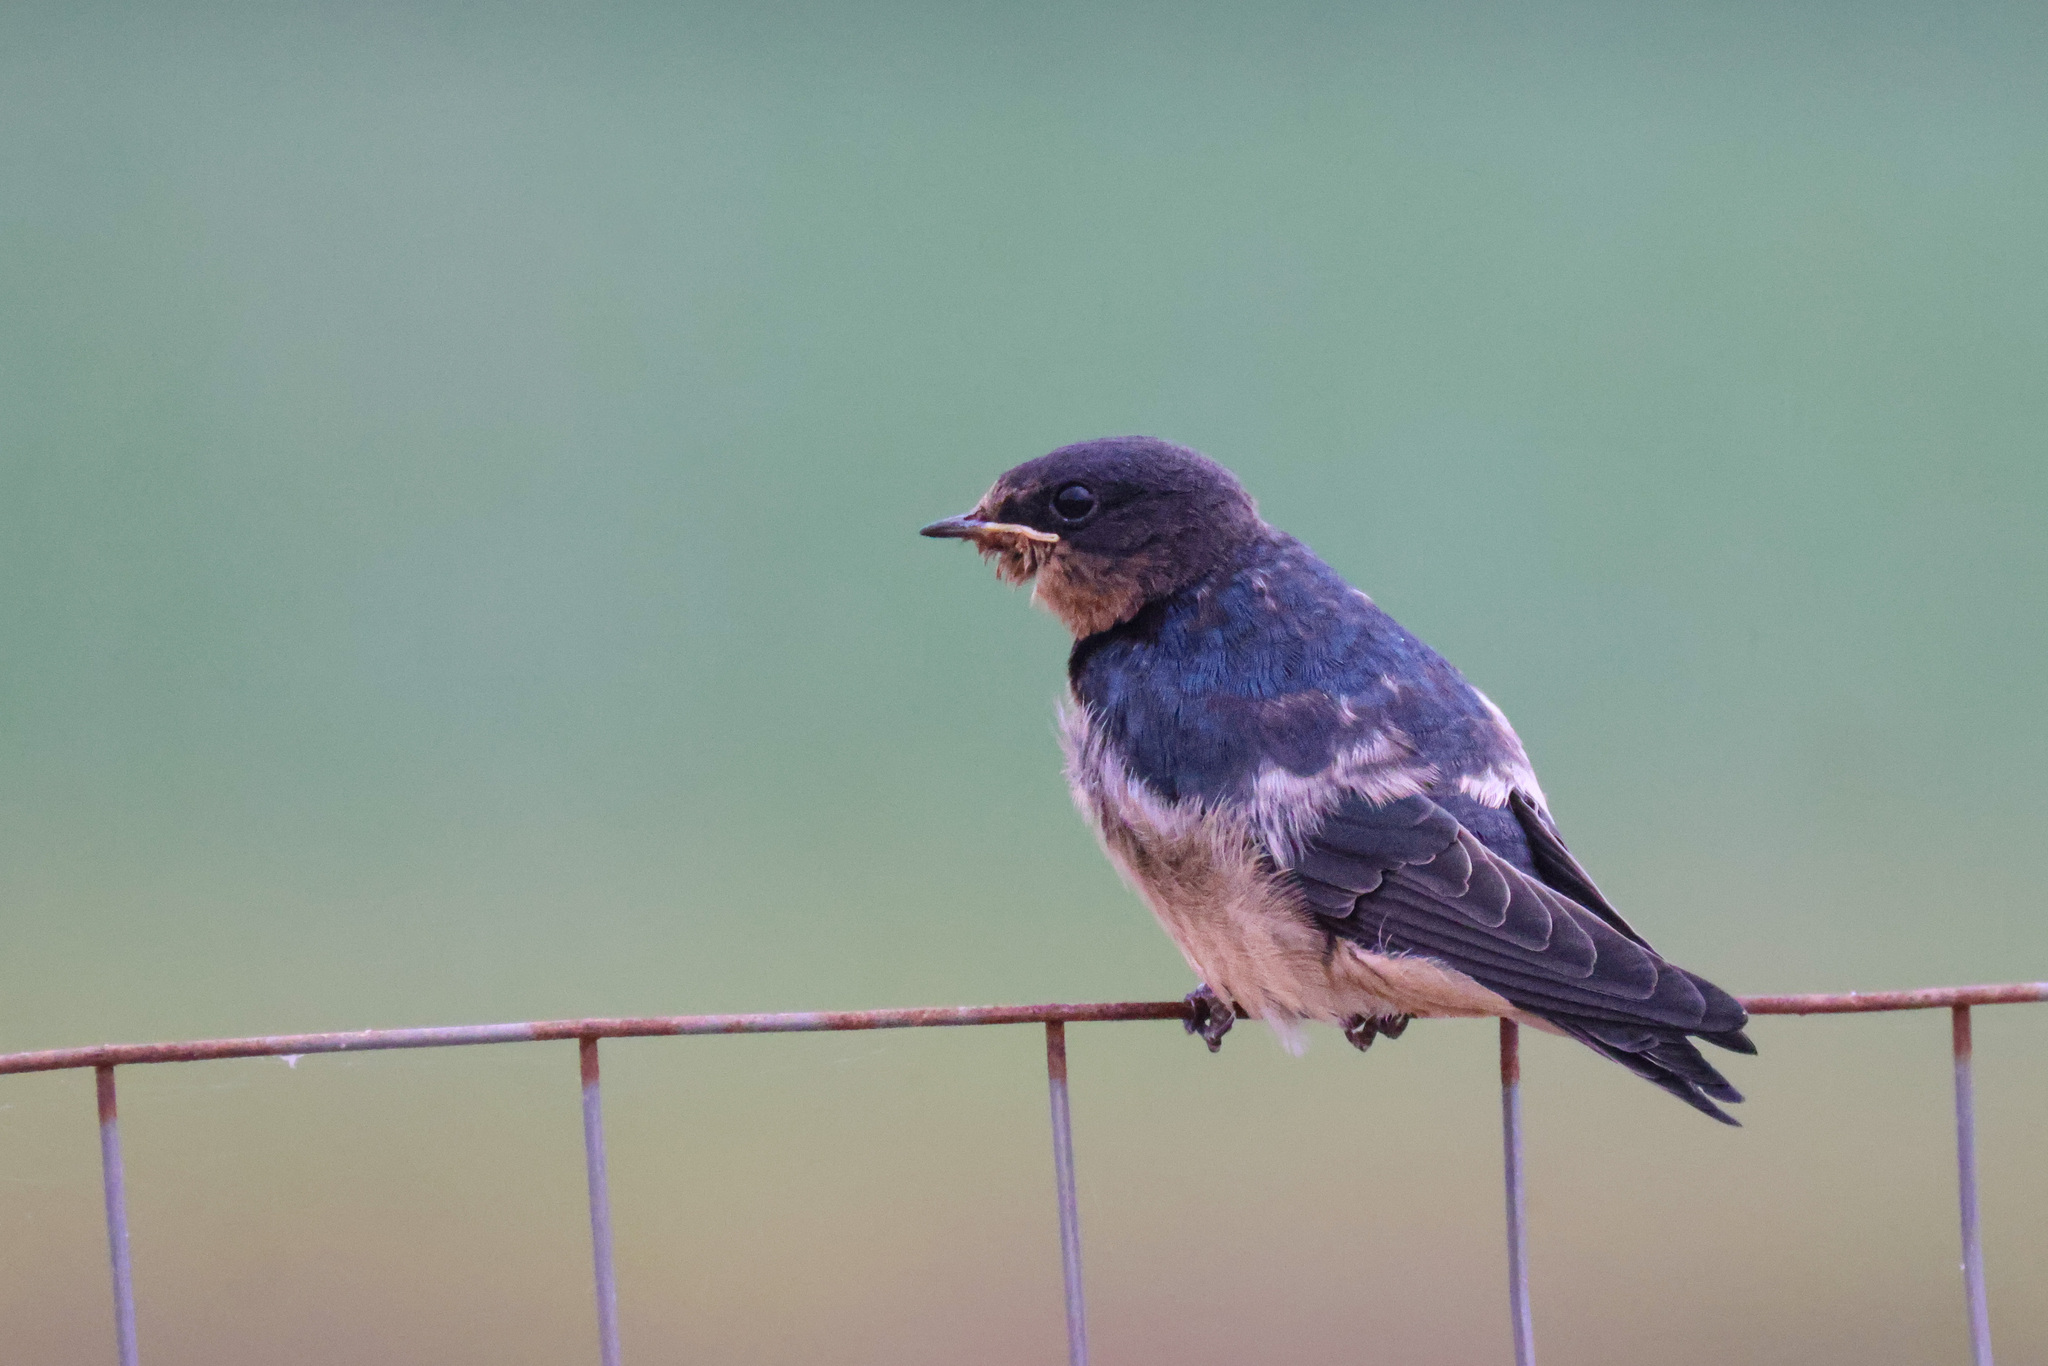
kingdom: Animalia
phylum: Chordata
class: Aves
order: Passeriformes
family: Hirundinidae
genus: Hirundo
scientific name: Hirundo rustica
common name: Barn swallow
